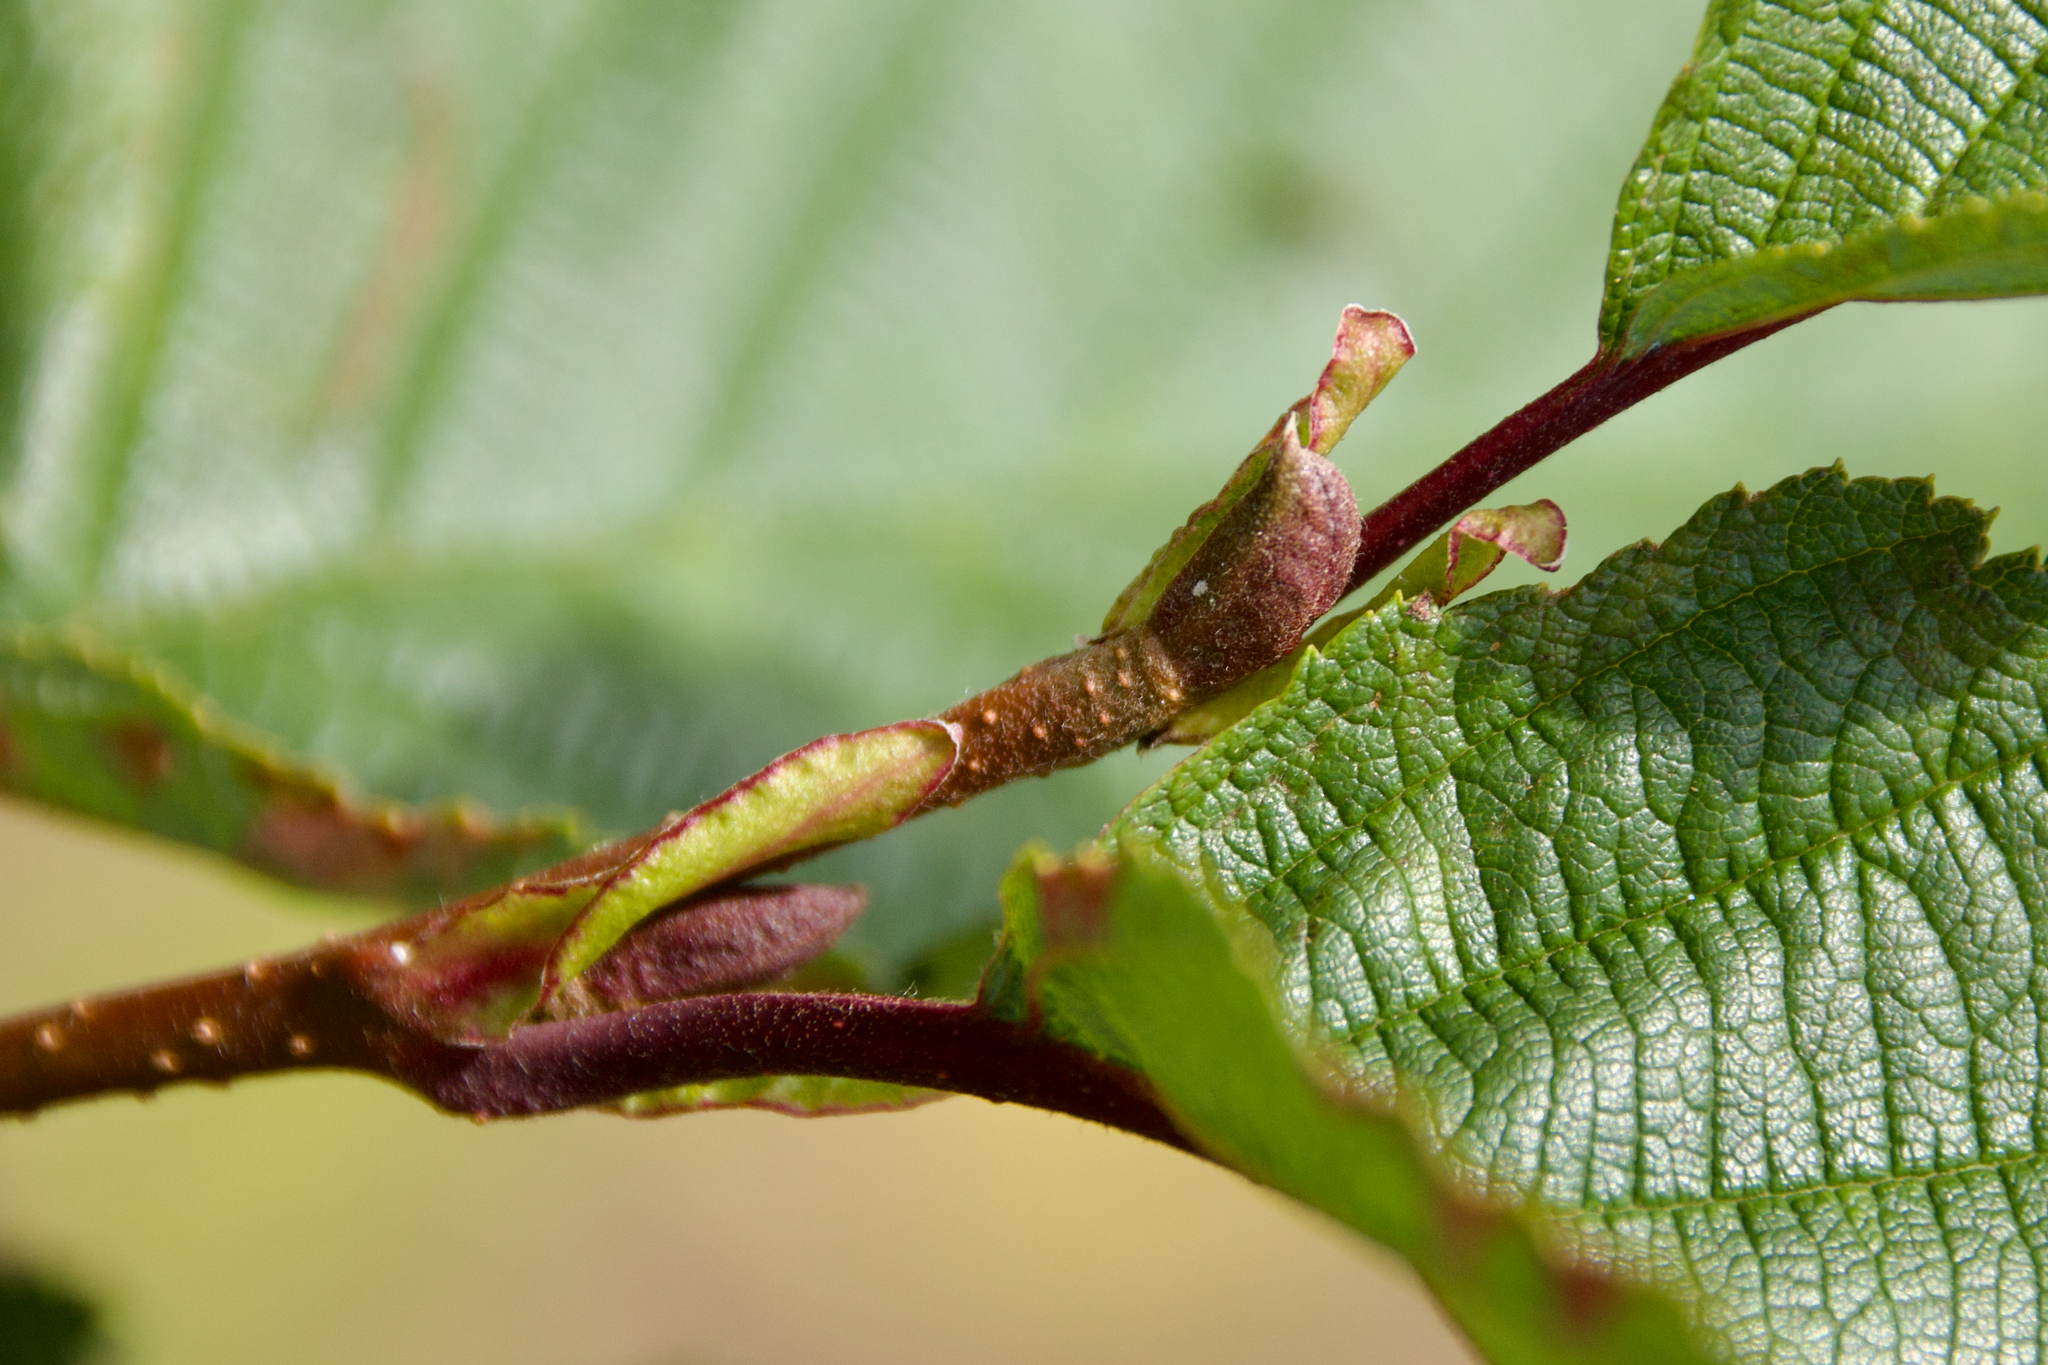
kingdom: Plantae
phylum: Tracheophyta
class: Magnoliopsida
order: Fagales
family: Betulaceae
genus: Alnus
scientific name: Alnus incana
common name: Grey alder
